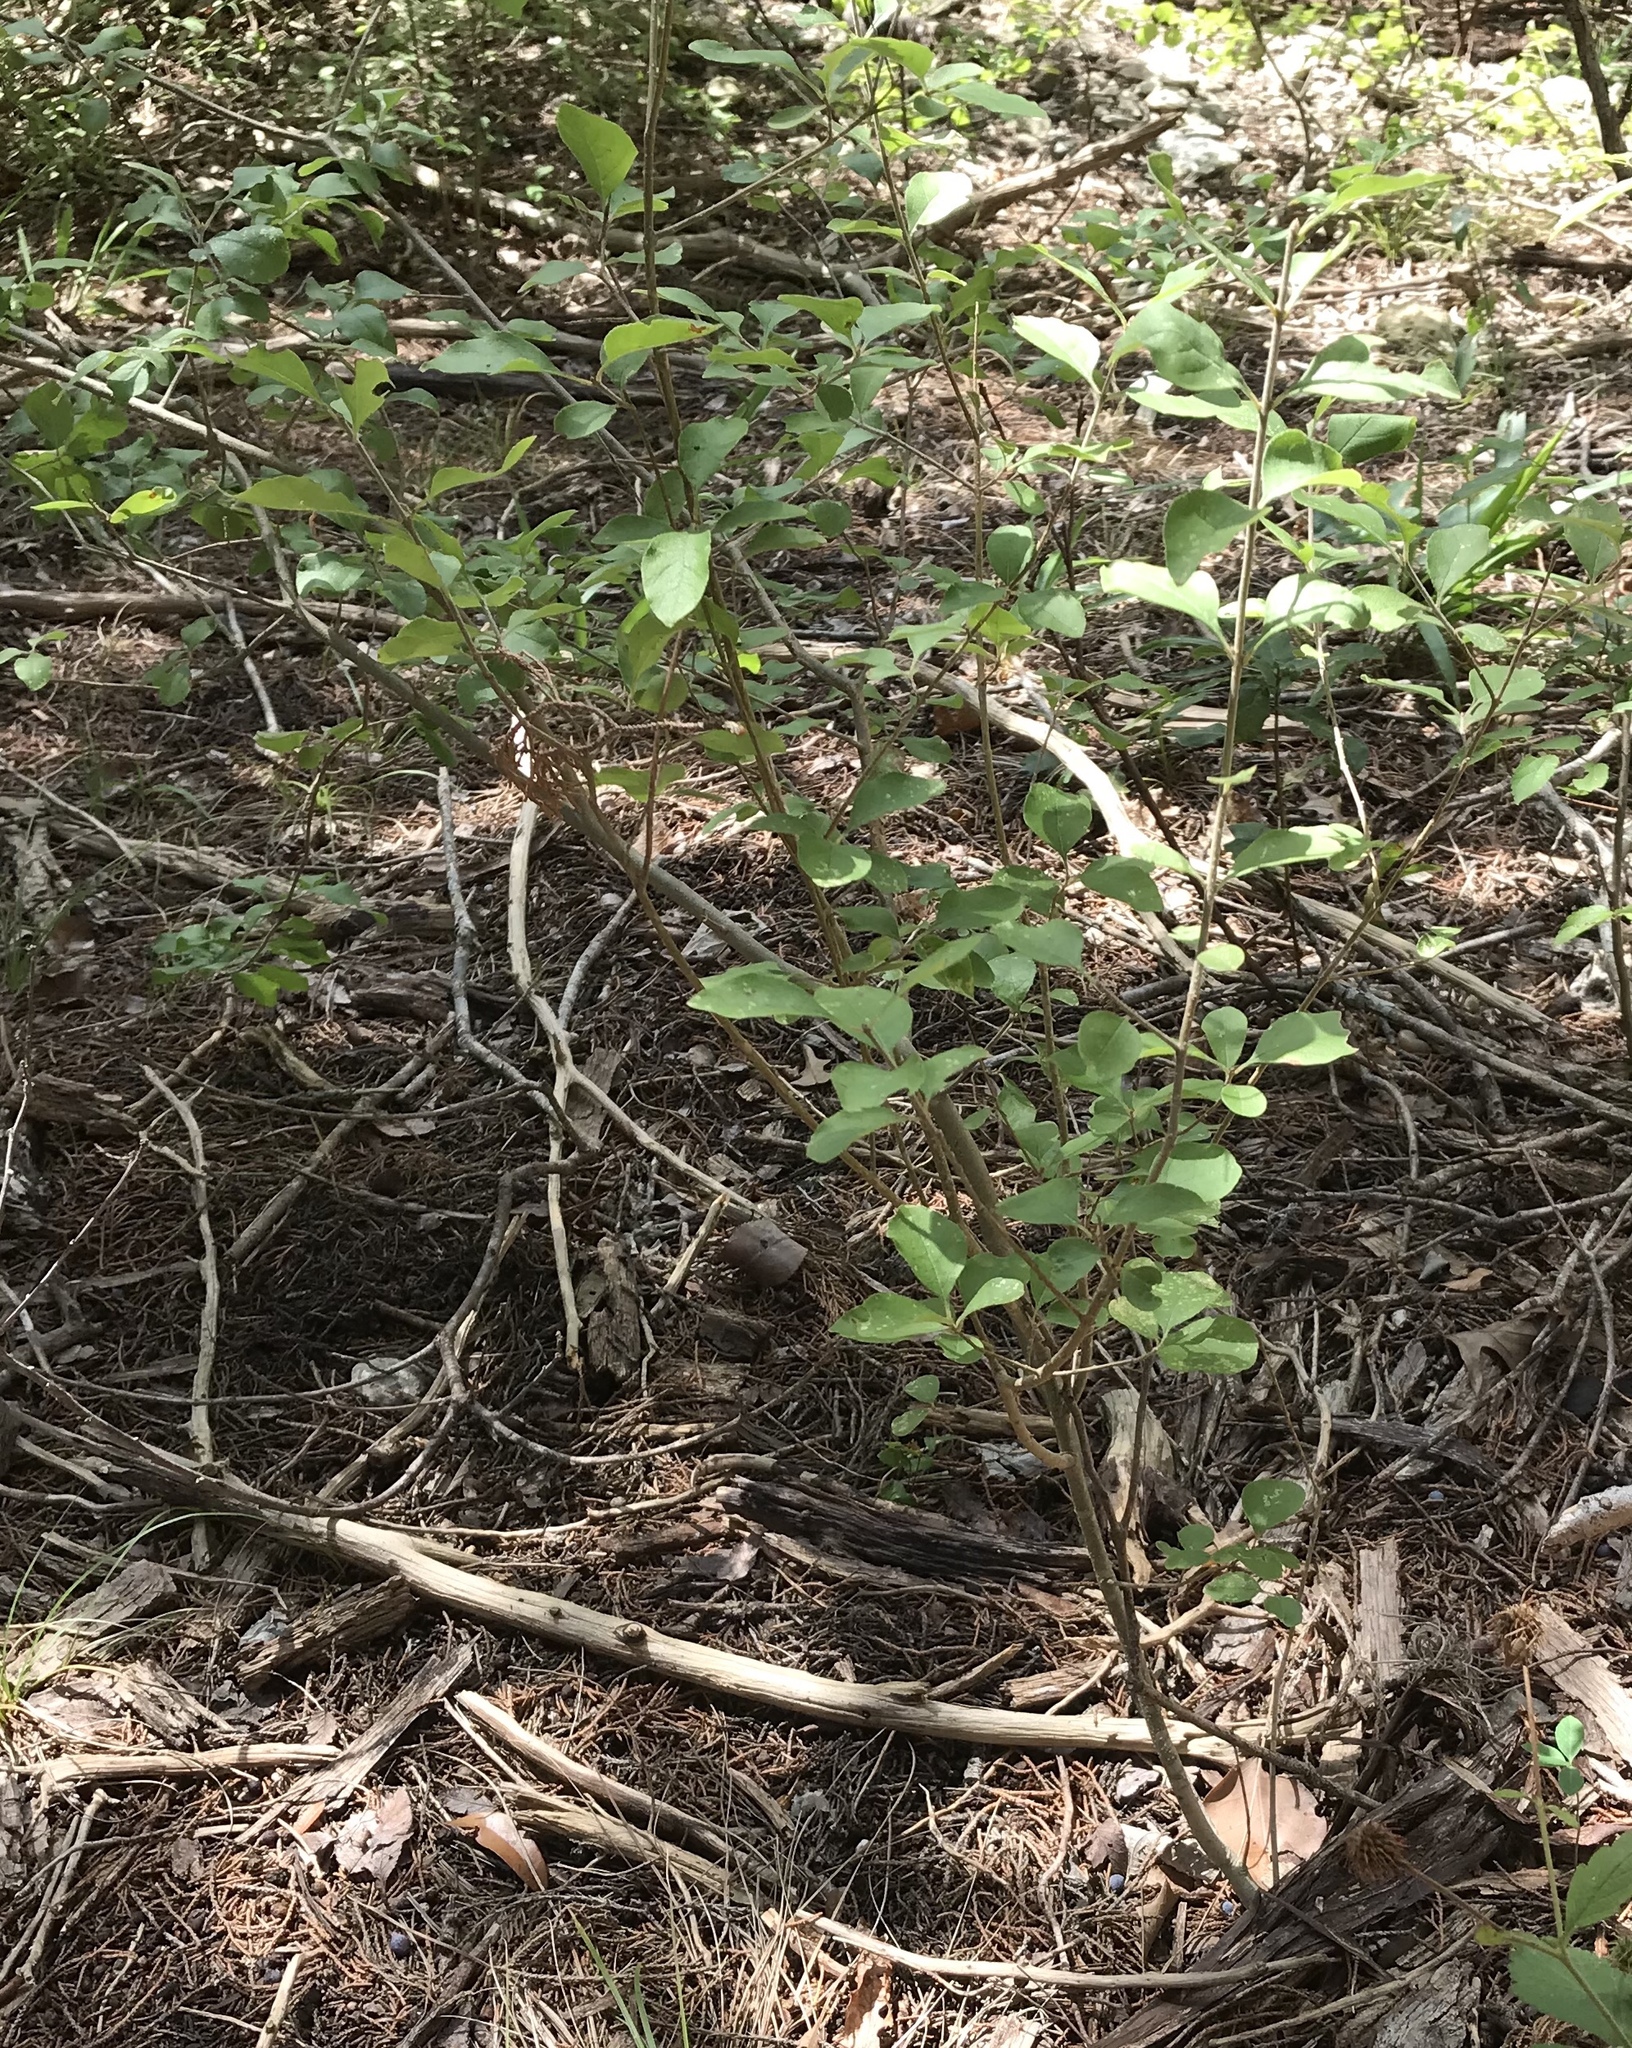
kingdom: Plantae
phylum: Tracheophyta
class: Magnoliopsida
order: Lamiales
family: Oleaceae
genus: Forestiera
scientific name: Forestiera pubescens
